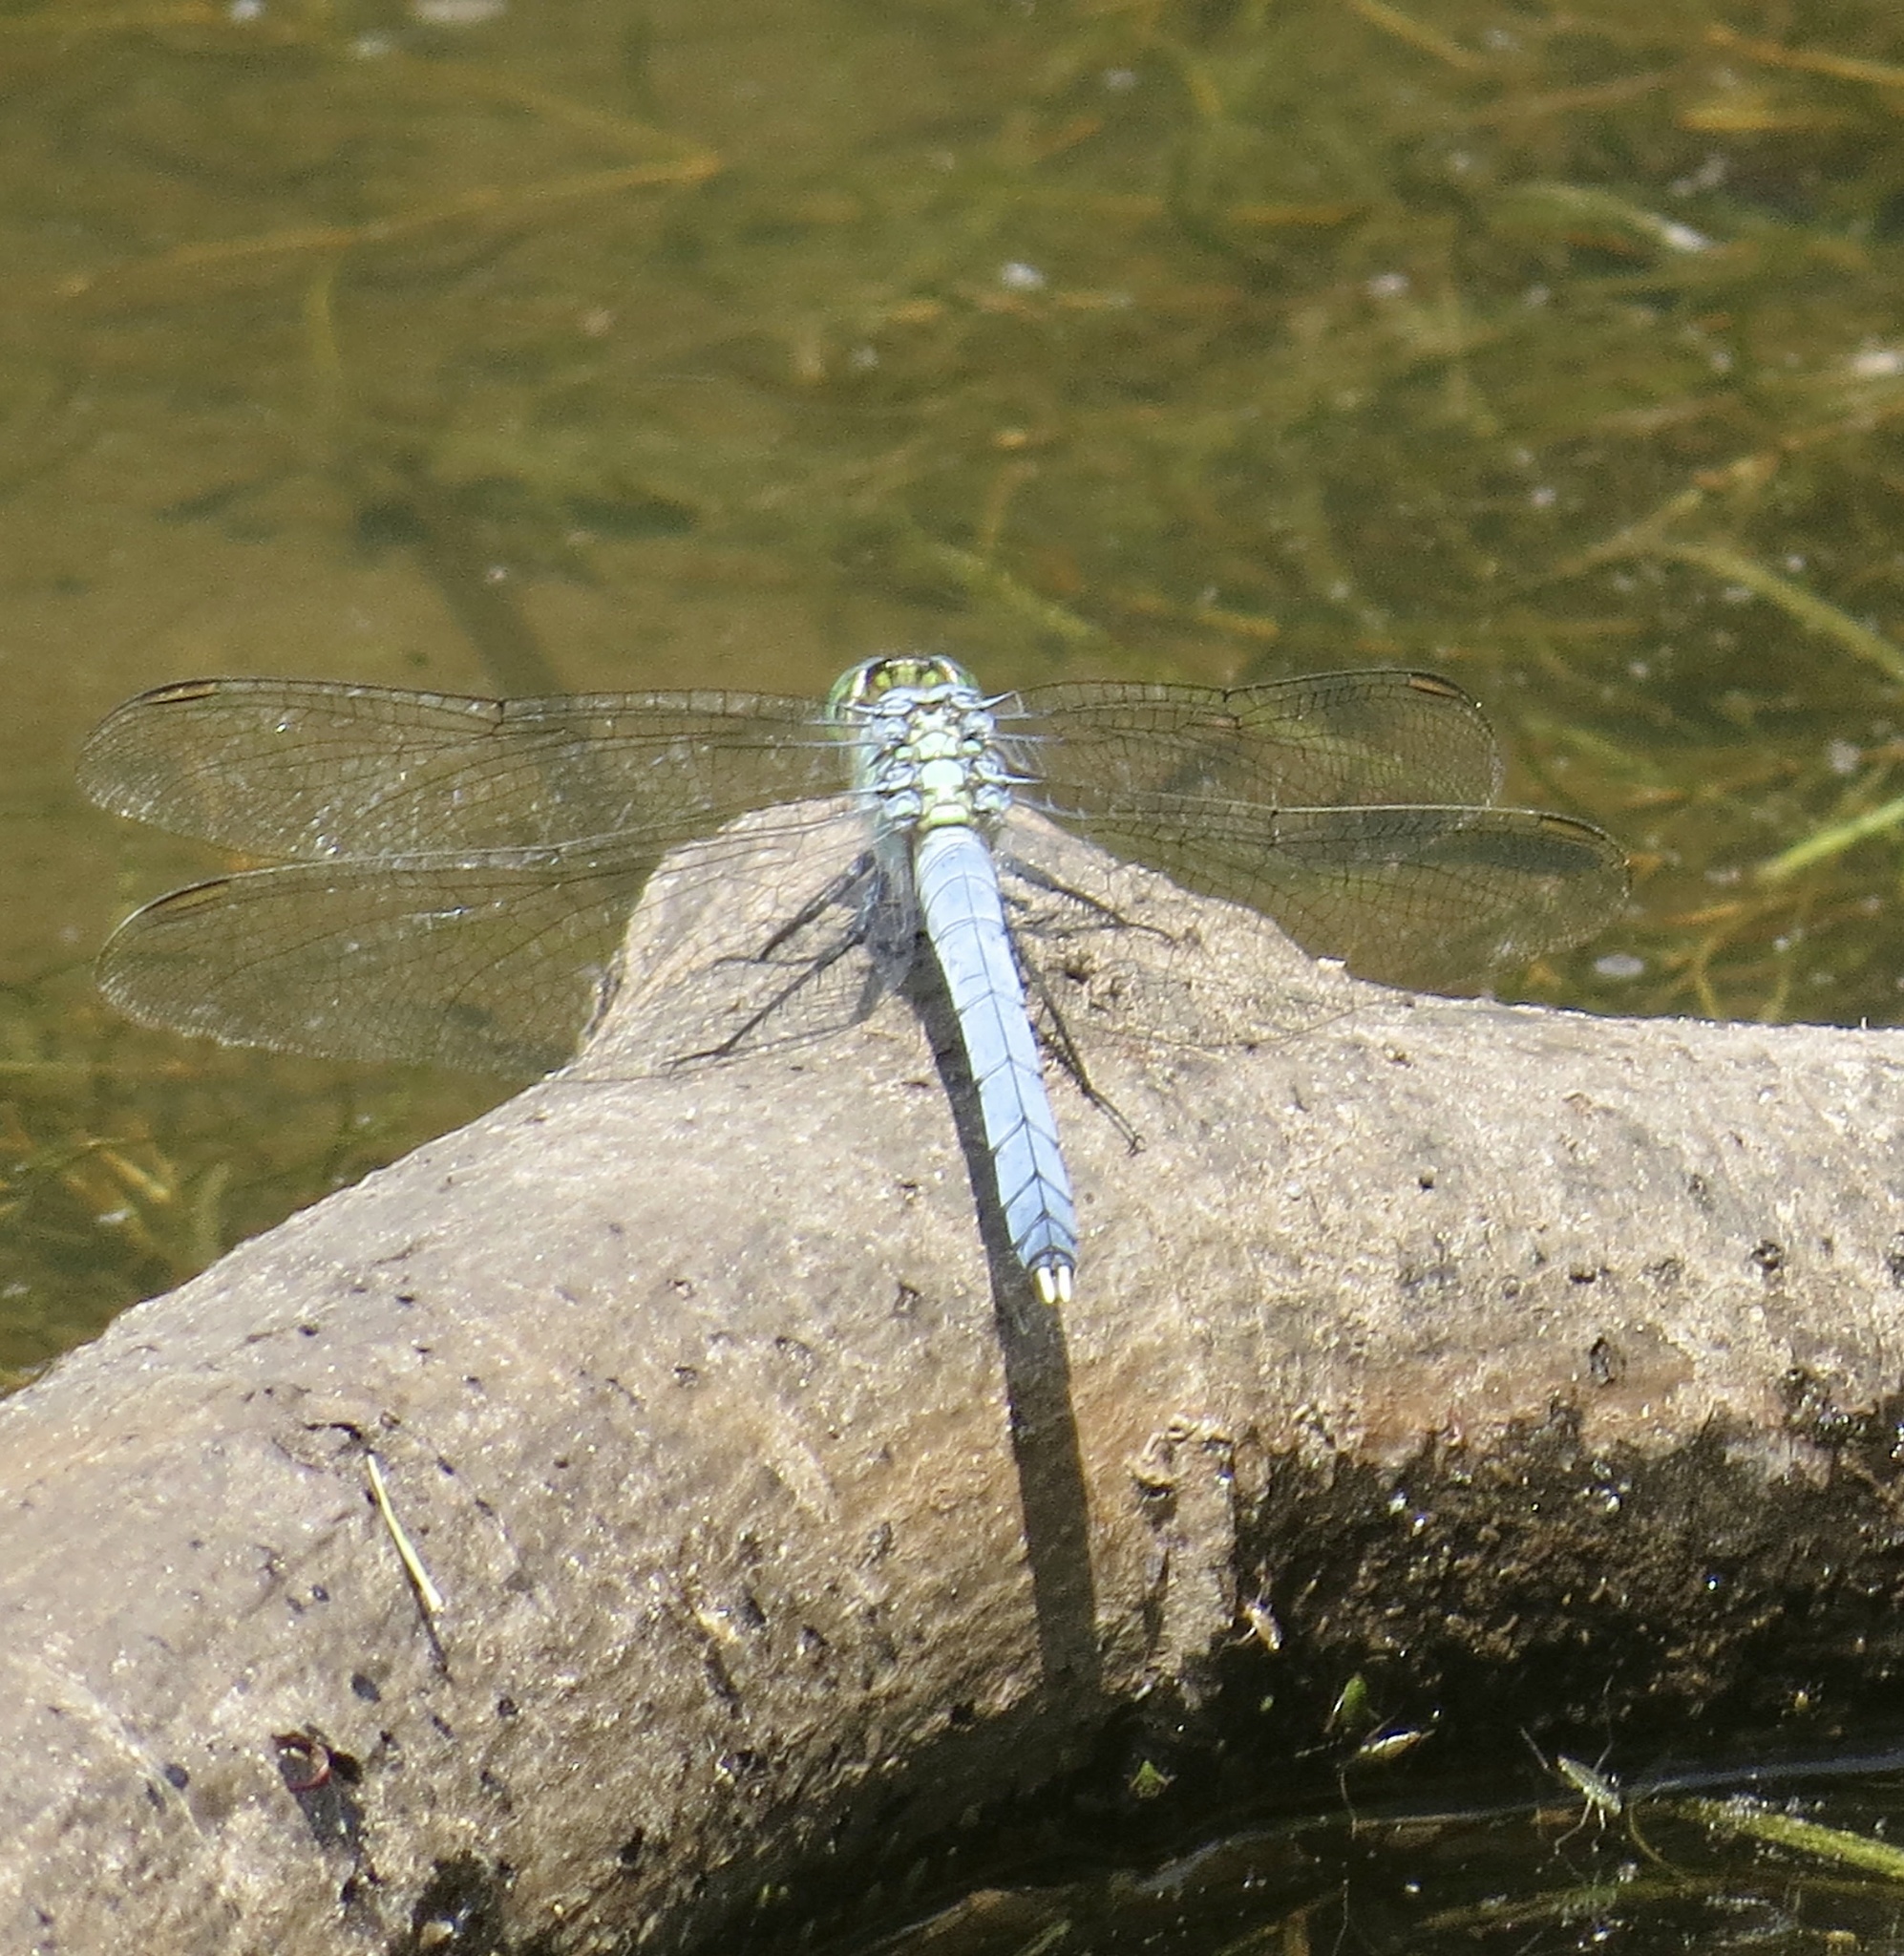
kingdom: Animalia
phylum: Arthropoda
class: Insecta
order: Odonata
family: Libellulidae
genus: Erythemis
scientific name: Erythemis simplicicollis
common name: Eastern pondhawk
